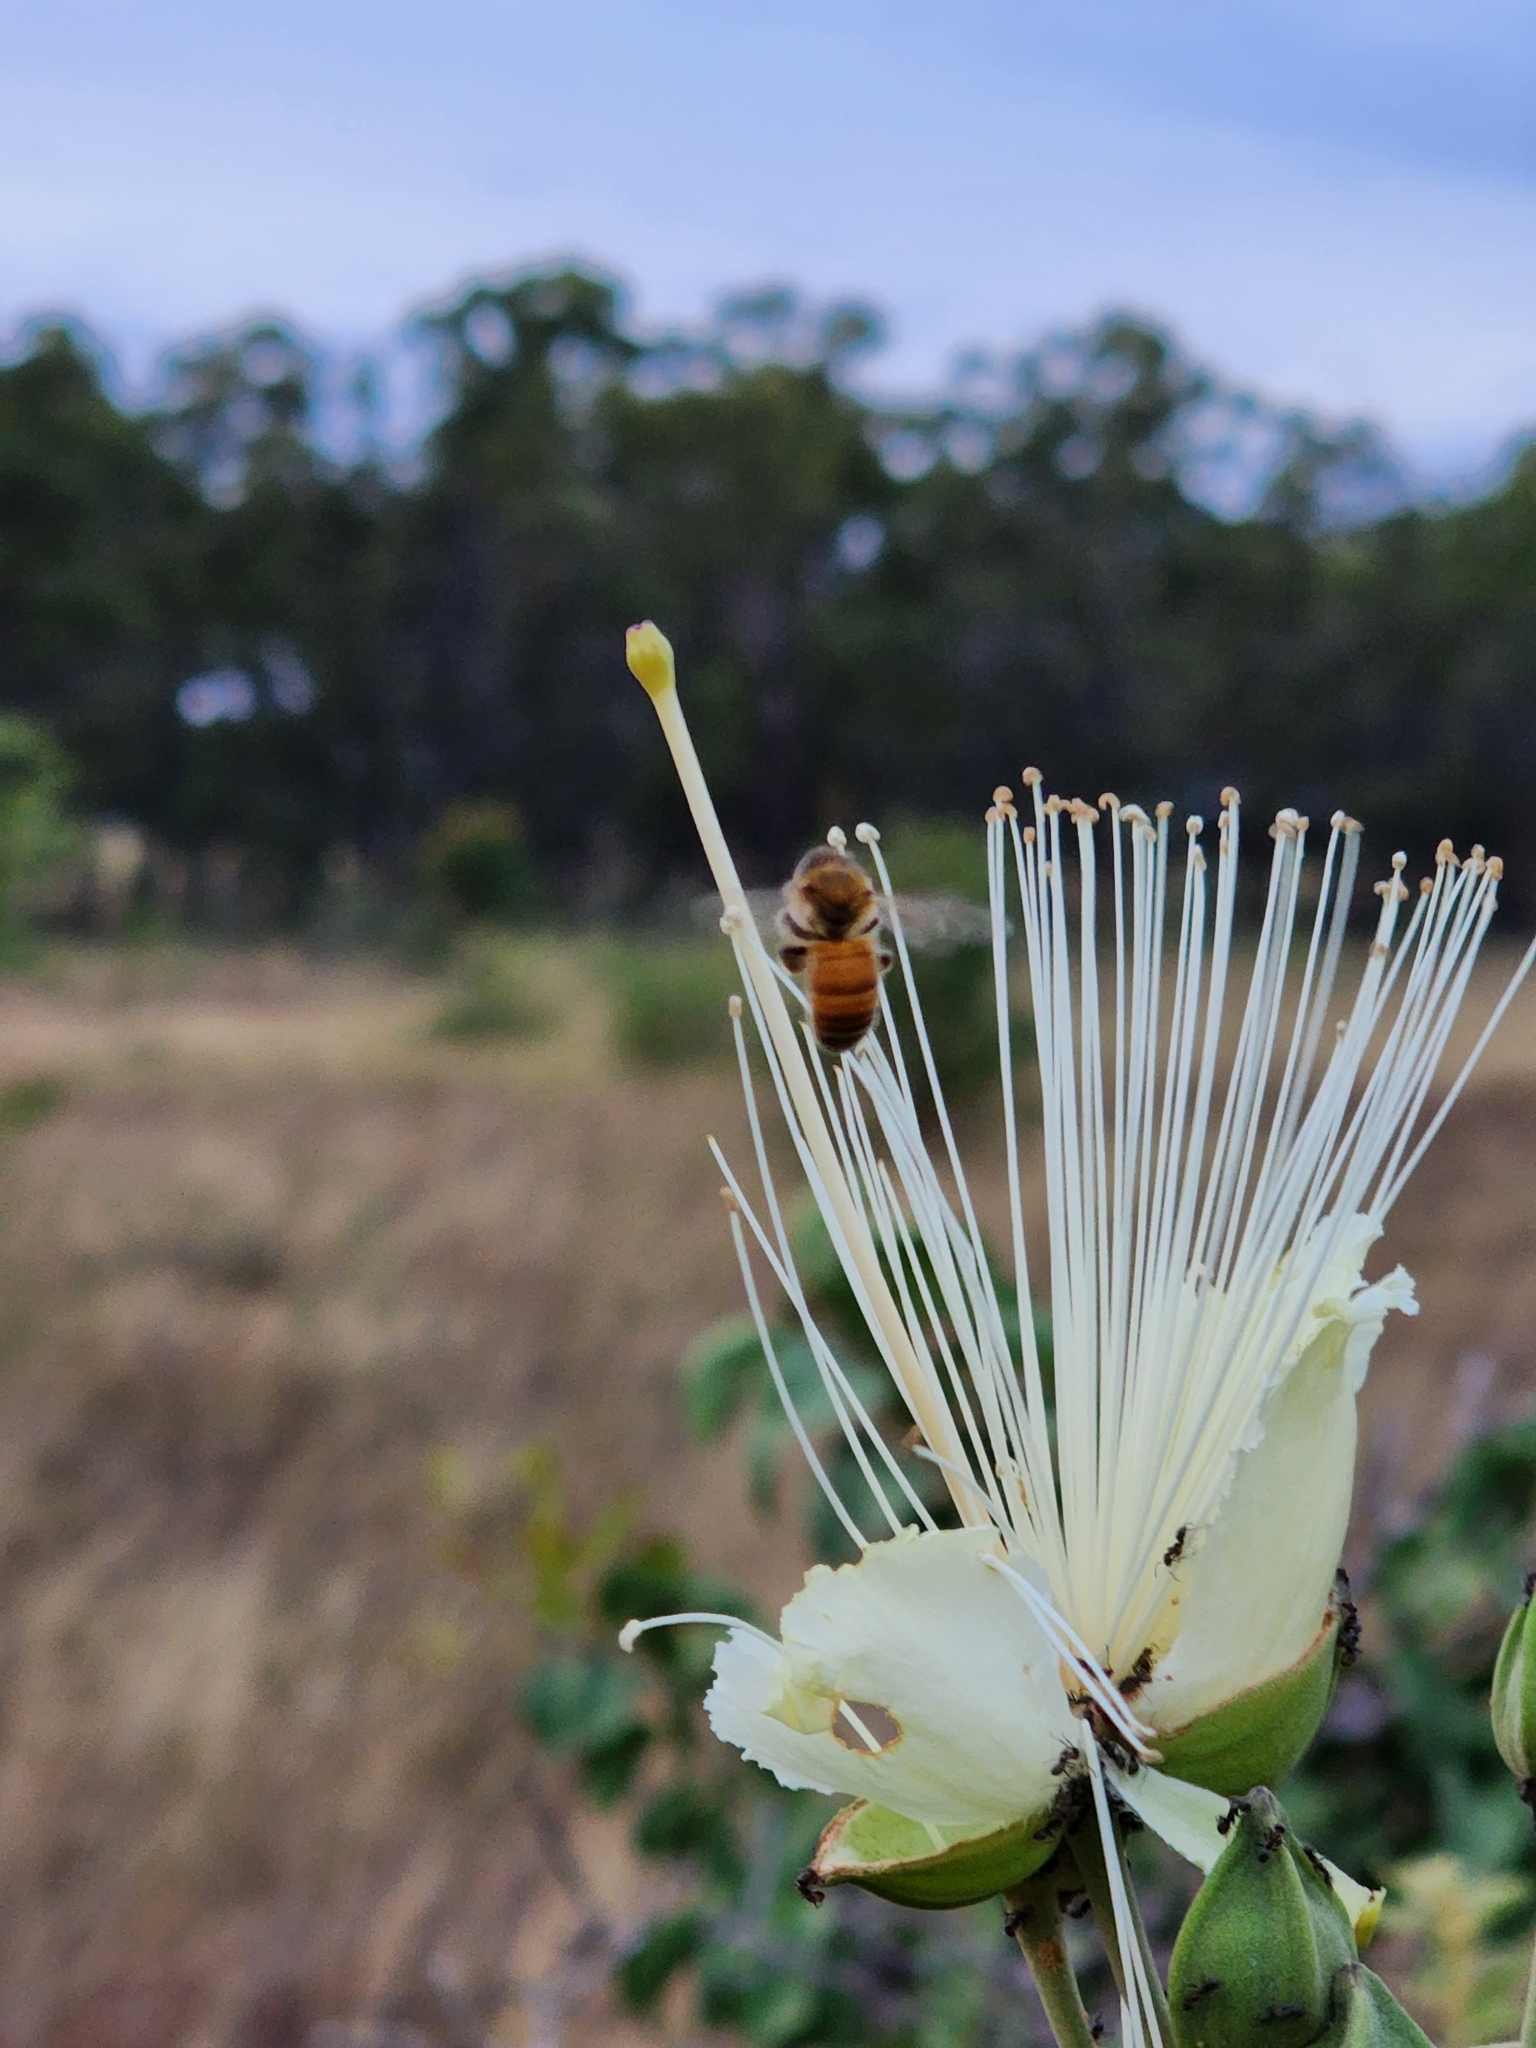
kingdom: Animalia
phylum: Arthropoda
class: Insecta
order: Hymenoptera
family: Apidae
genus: Apis
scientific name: Apis mellifera
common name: Honey bee
